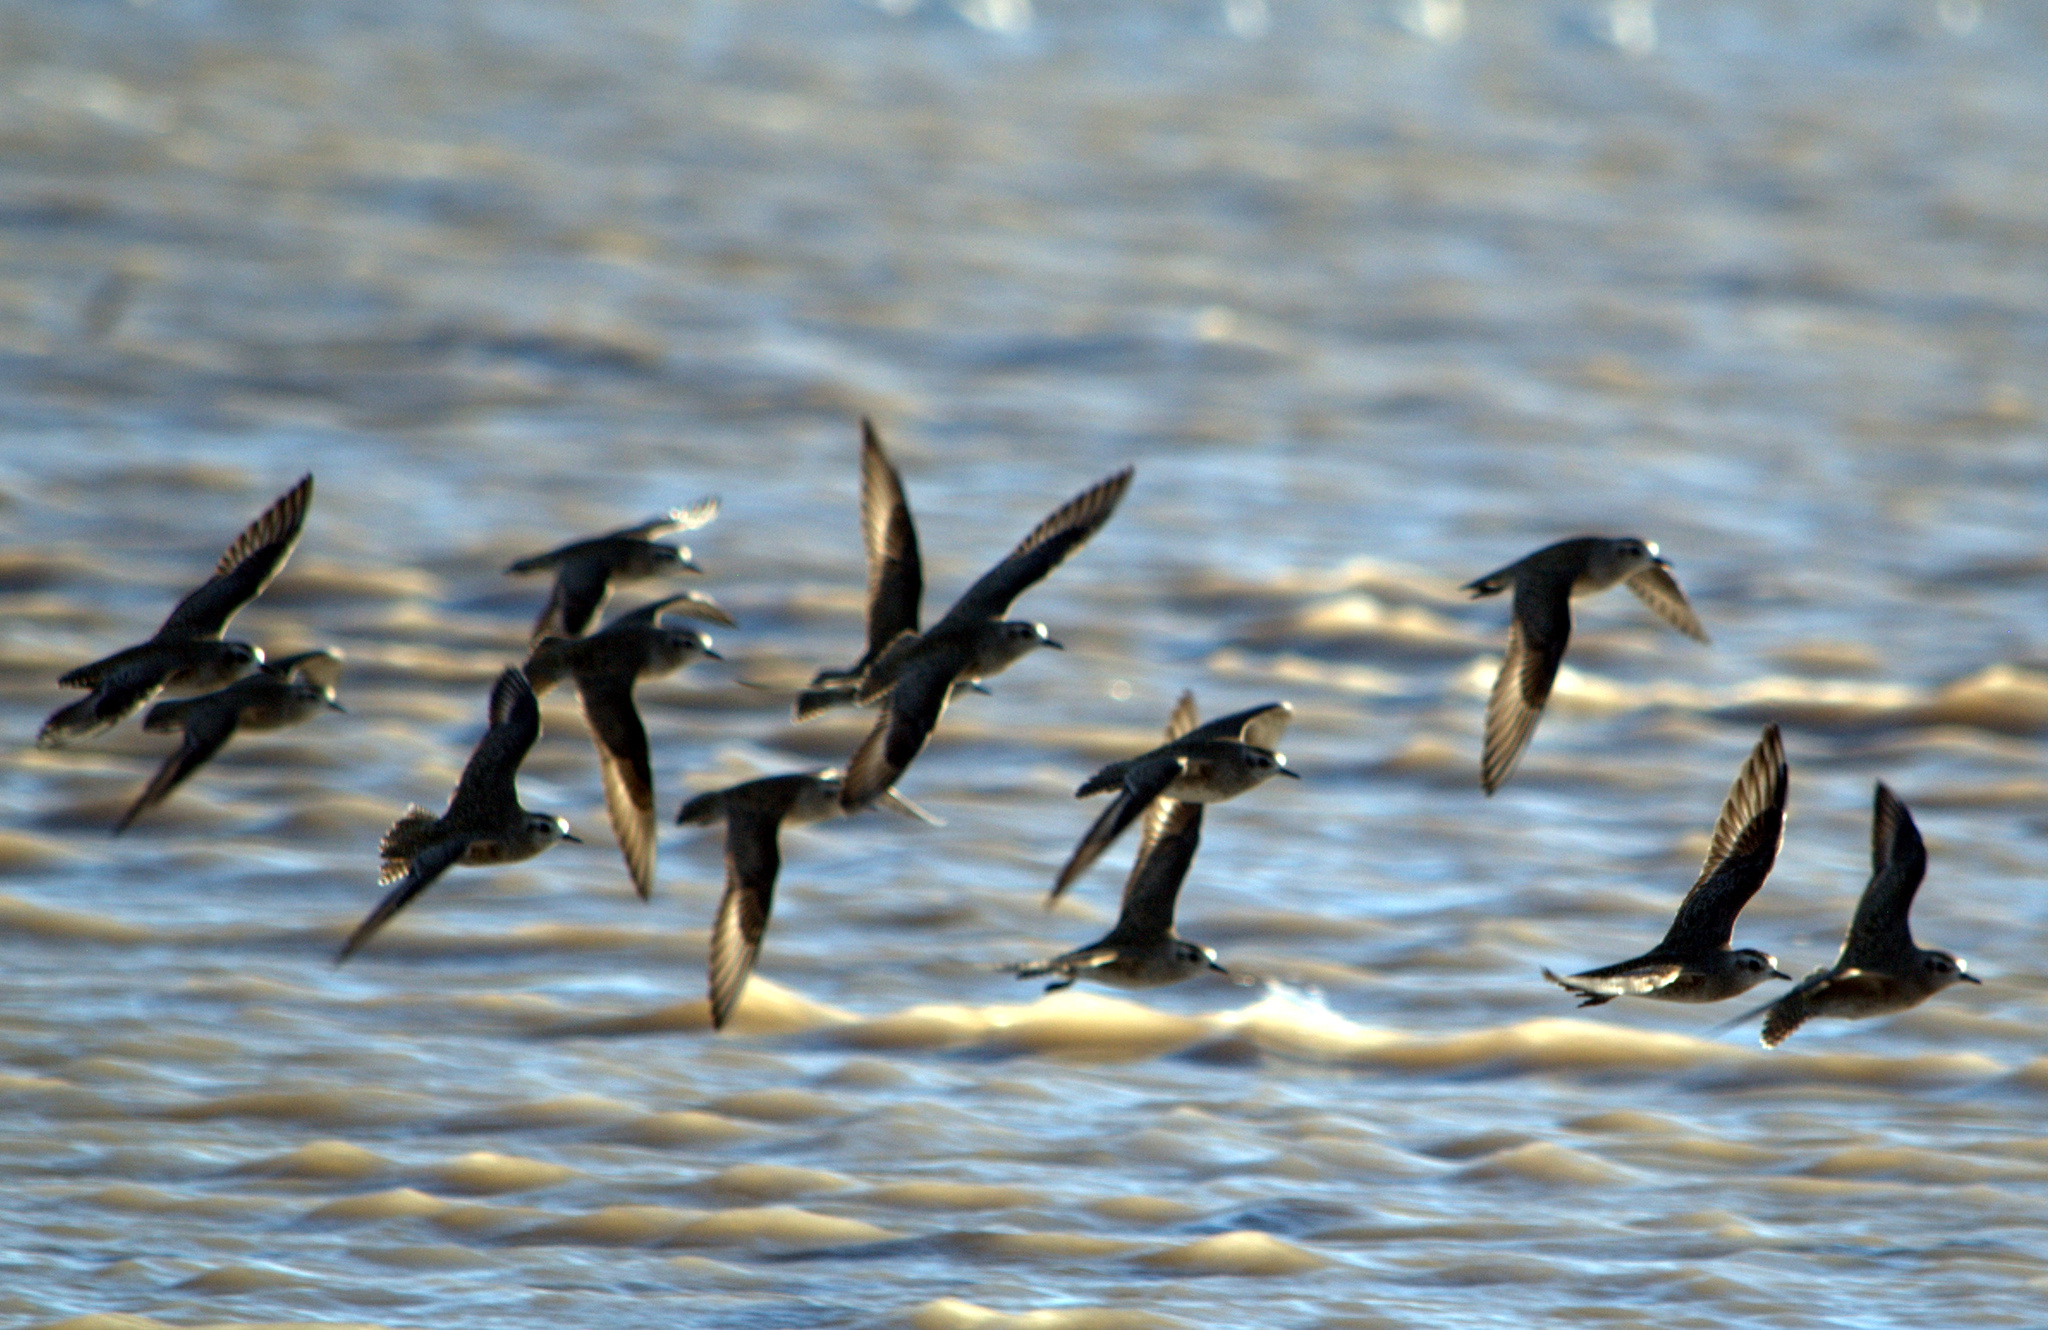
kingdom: Animalia
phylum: Chordata
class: Aves
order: Charadriiformes
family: Charadriidae
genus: Pluvialis
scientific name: Pluvialis dominica
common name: American golden plover
